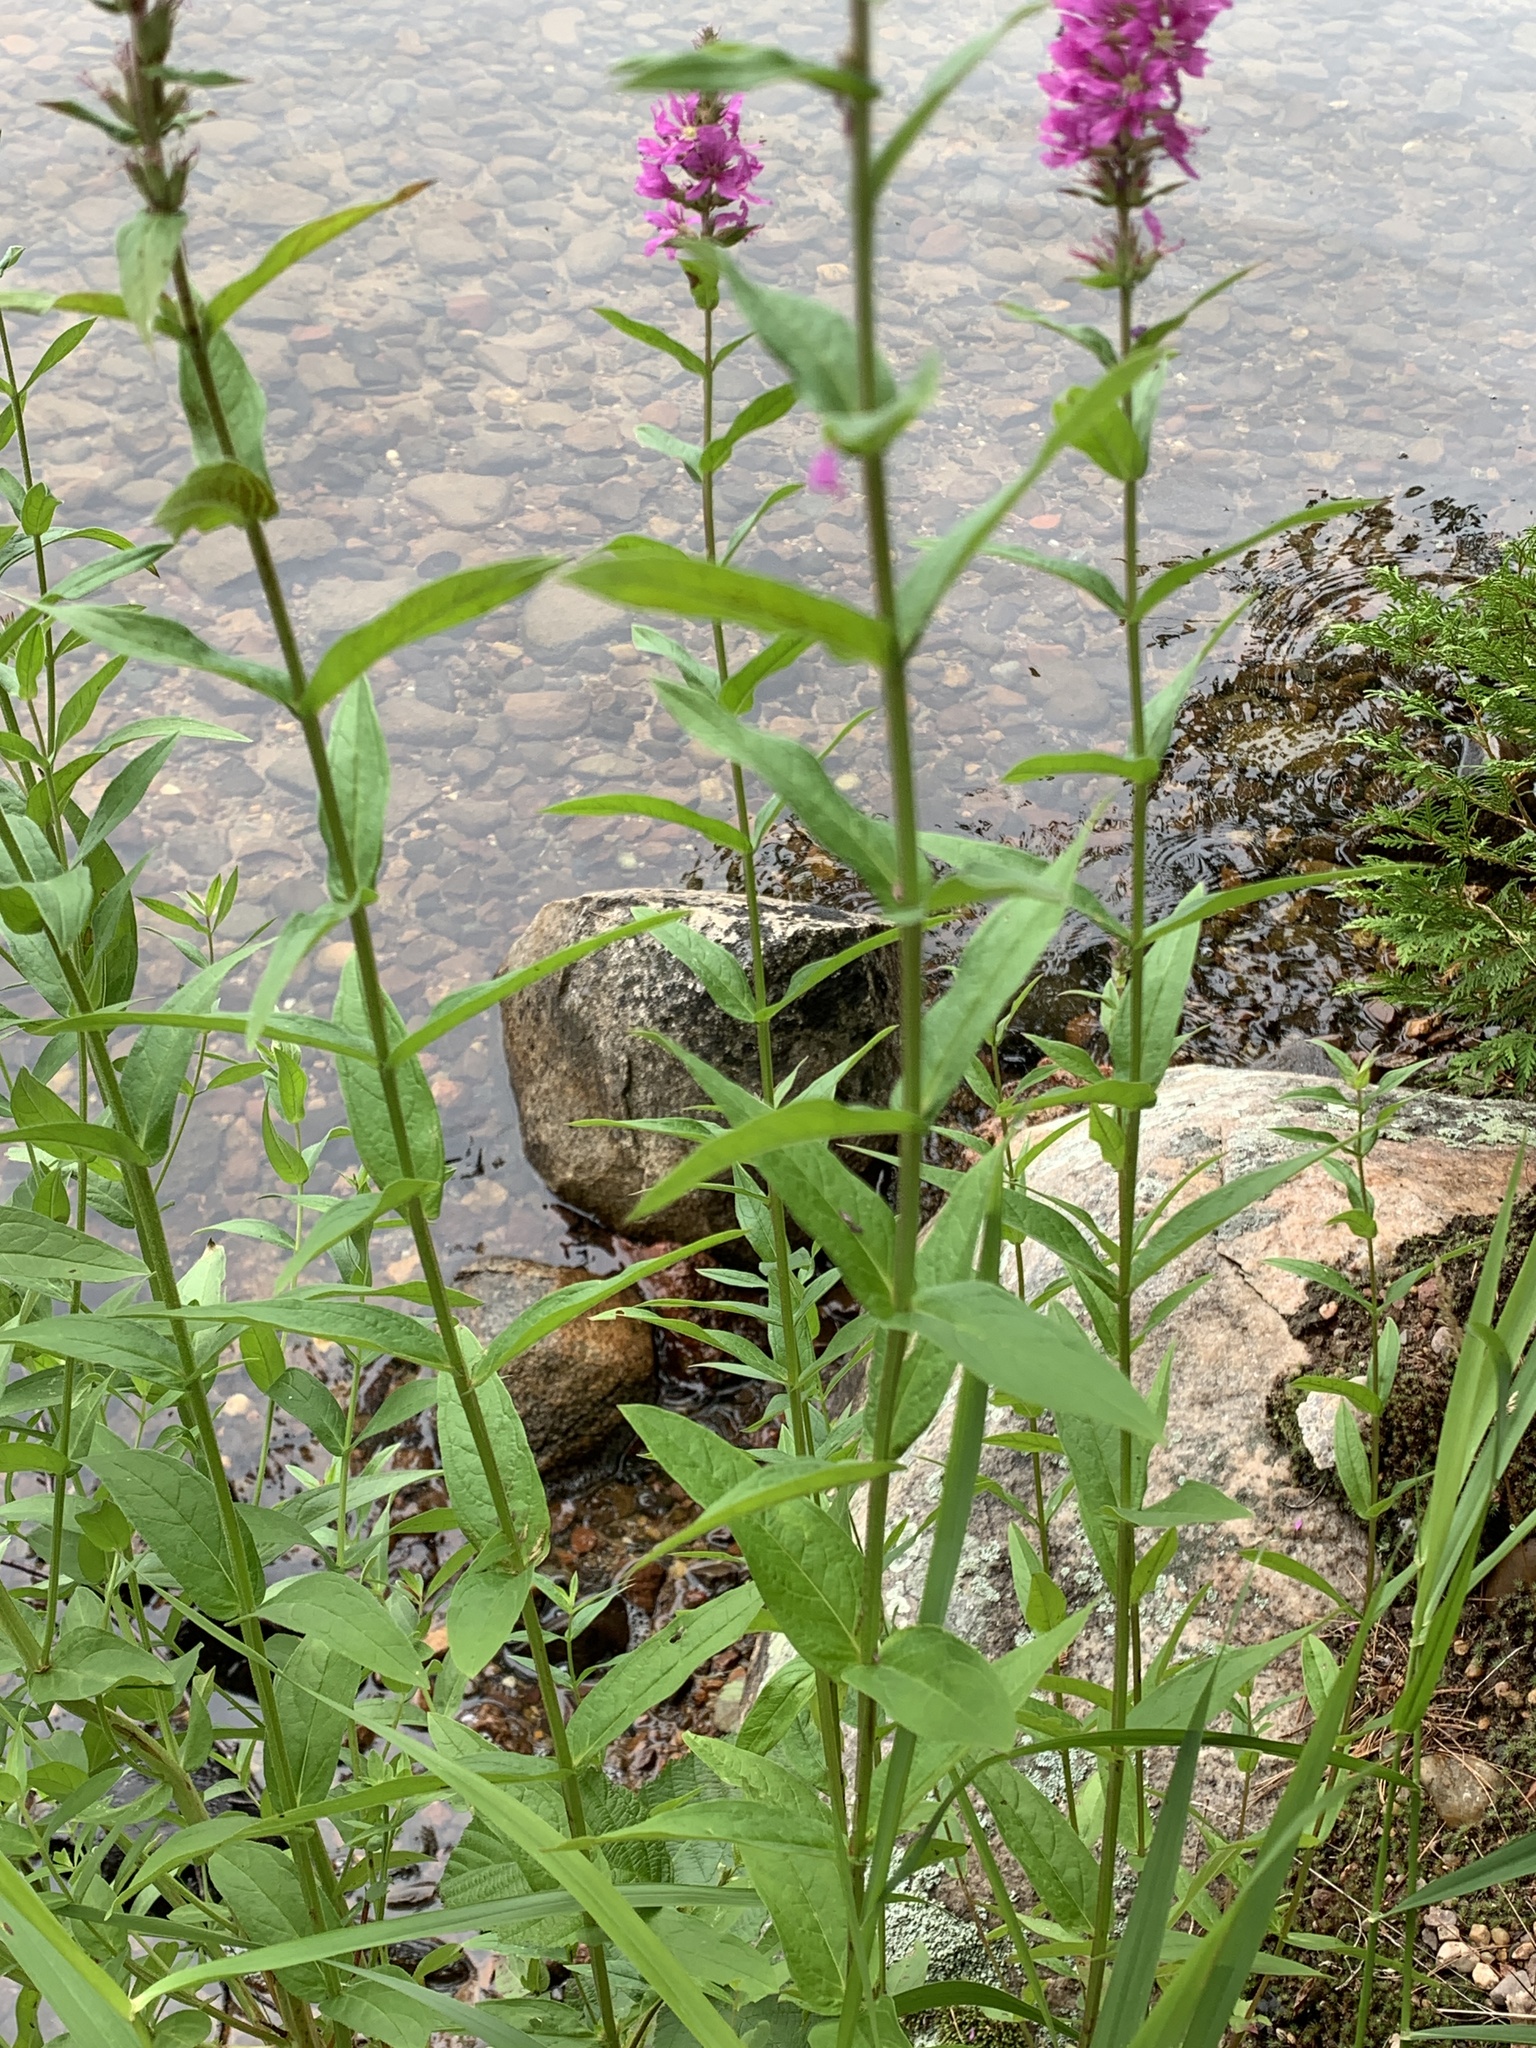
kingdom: Plantae
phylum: Tracheophyta
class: Magnoliopsida
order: Myrtales
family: Lythraceae
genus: Lythrum
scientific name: Lythrum salicaria
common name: Purple loosestrife
